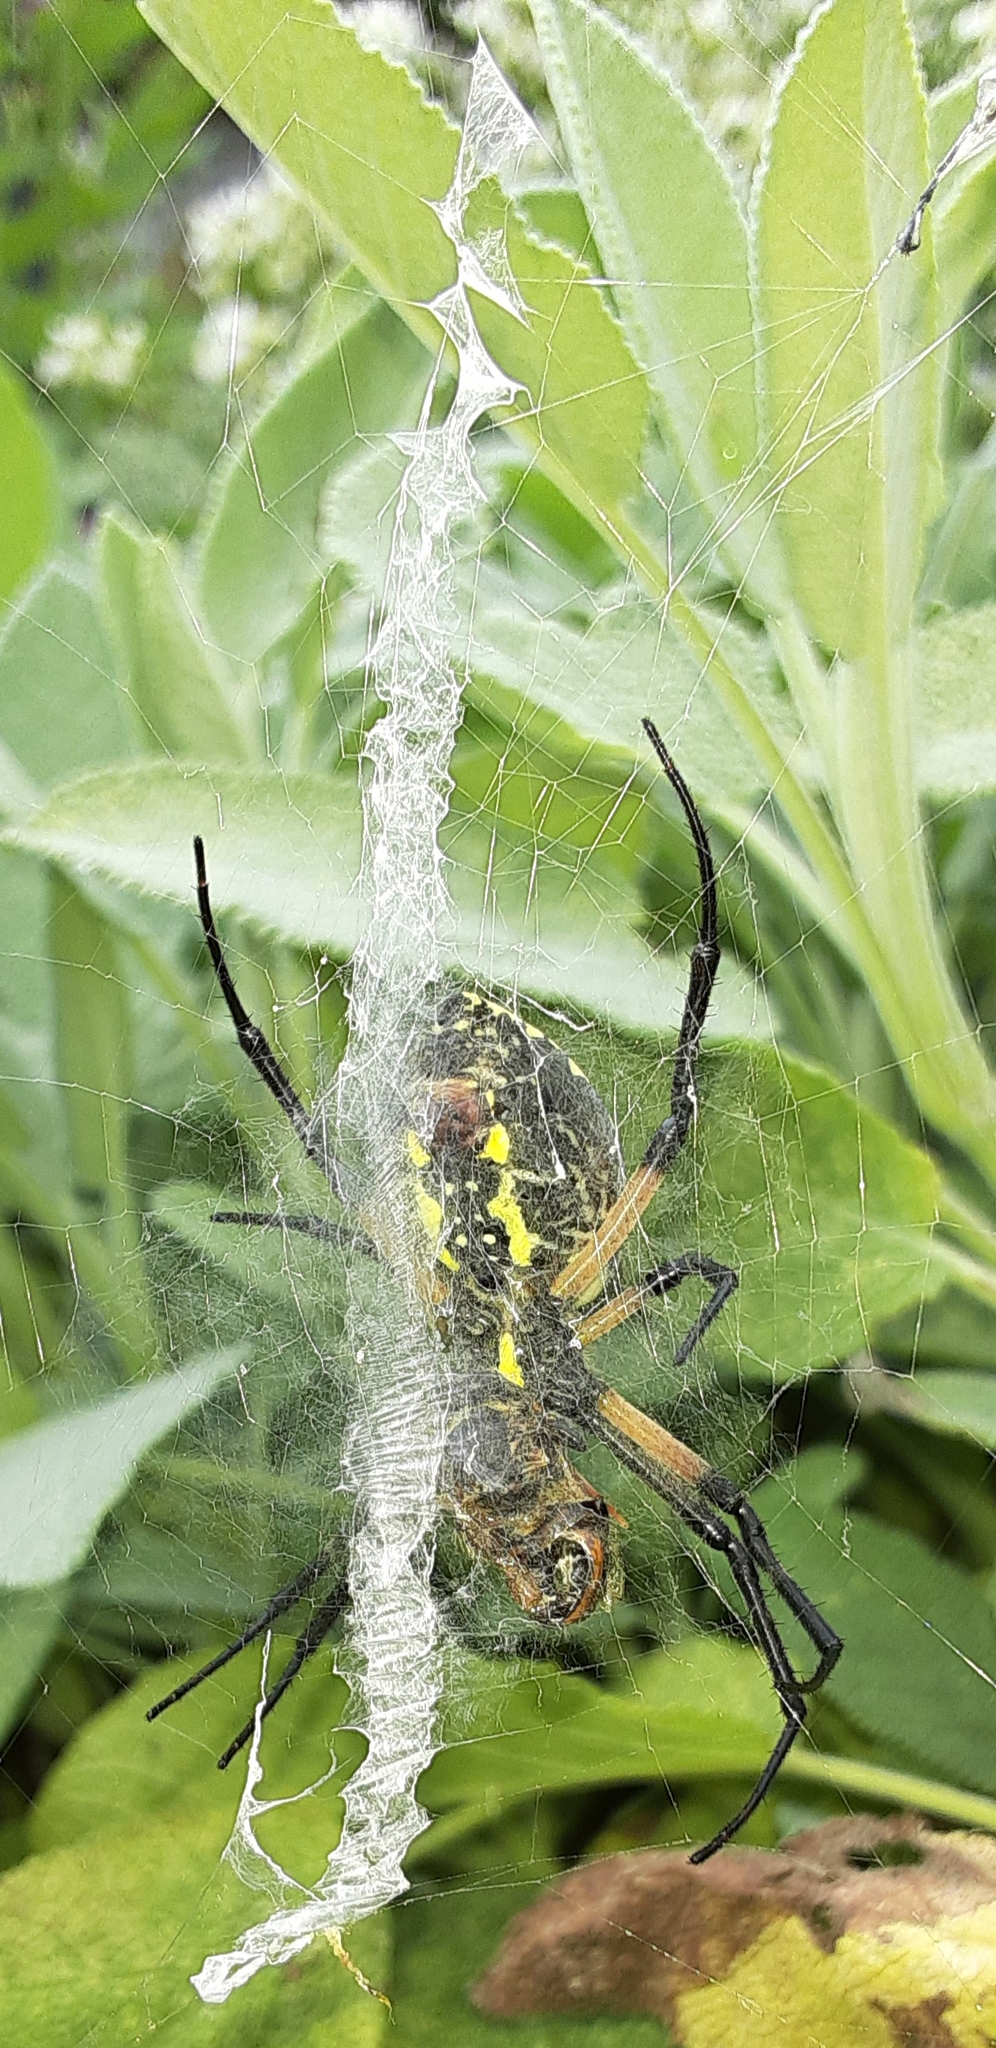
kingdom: Animalia
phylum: Arthropoda
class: Arachnida
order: Araneae
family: Araneidae
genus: Argiope
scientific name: Argiope aurantia
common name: Orb weavers
